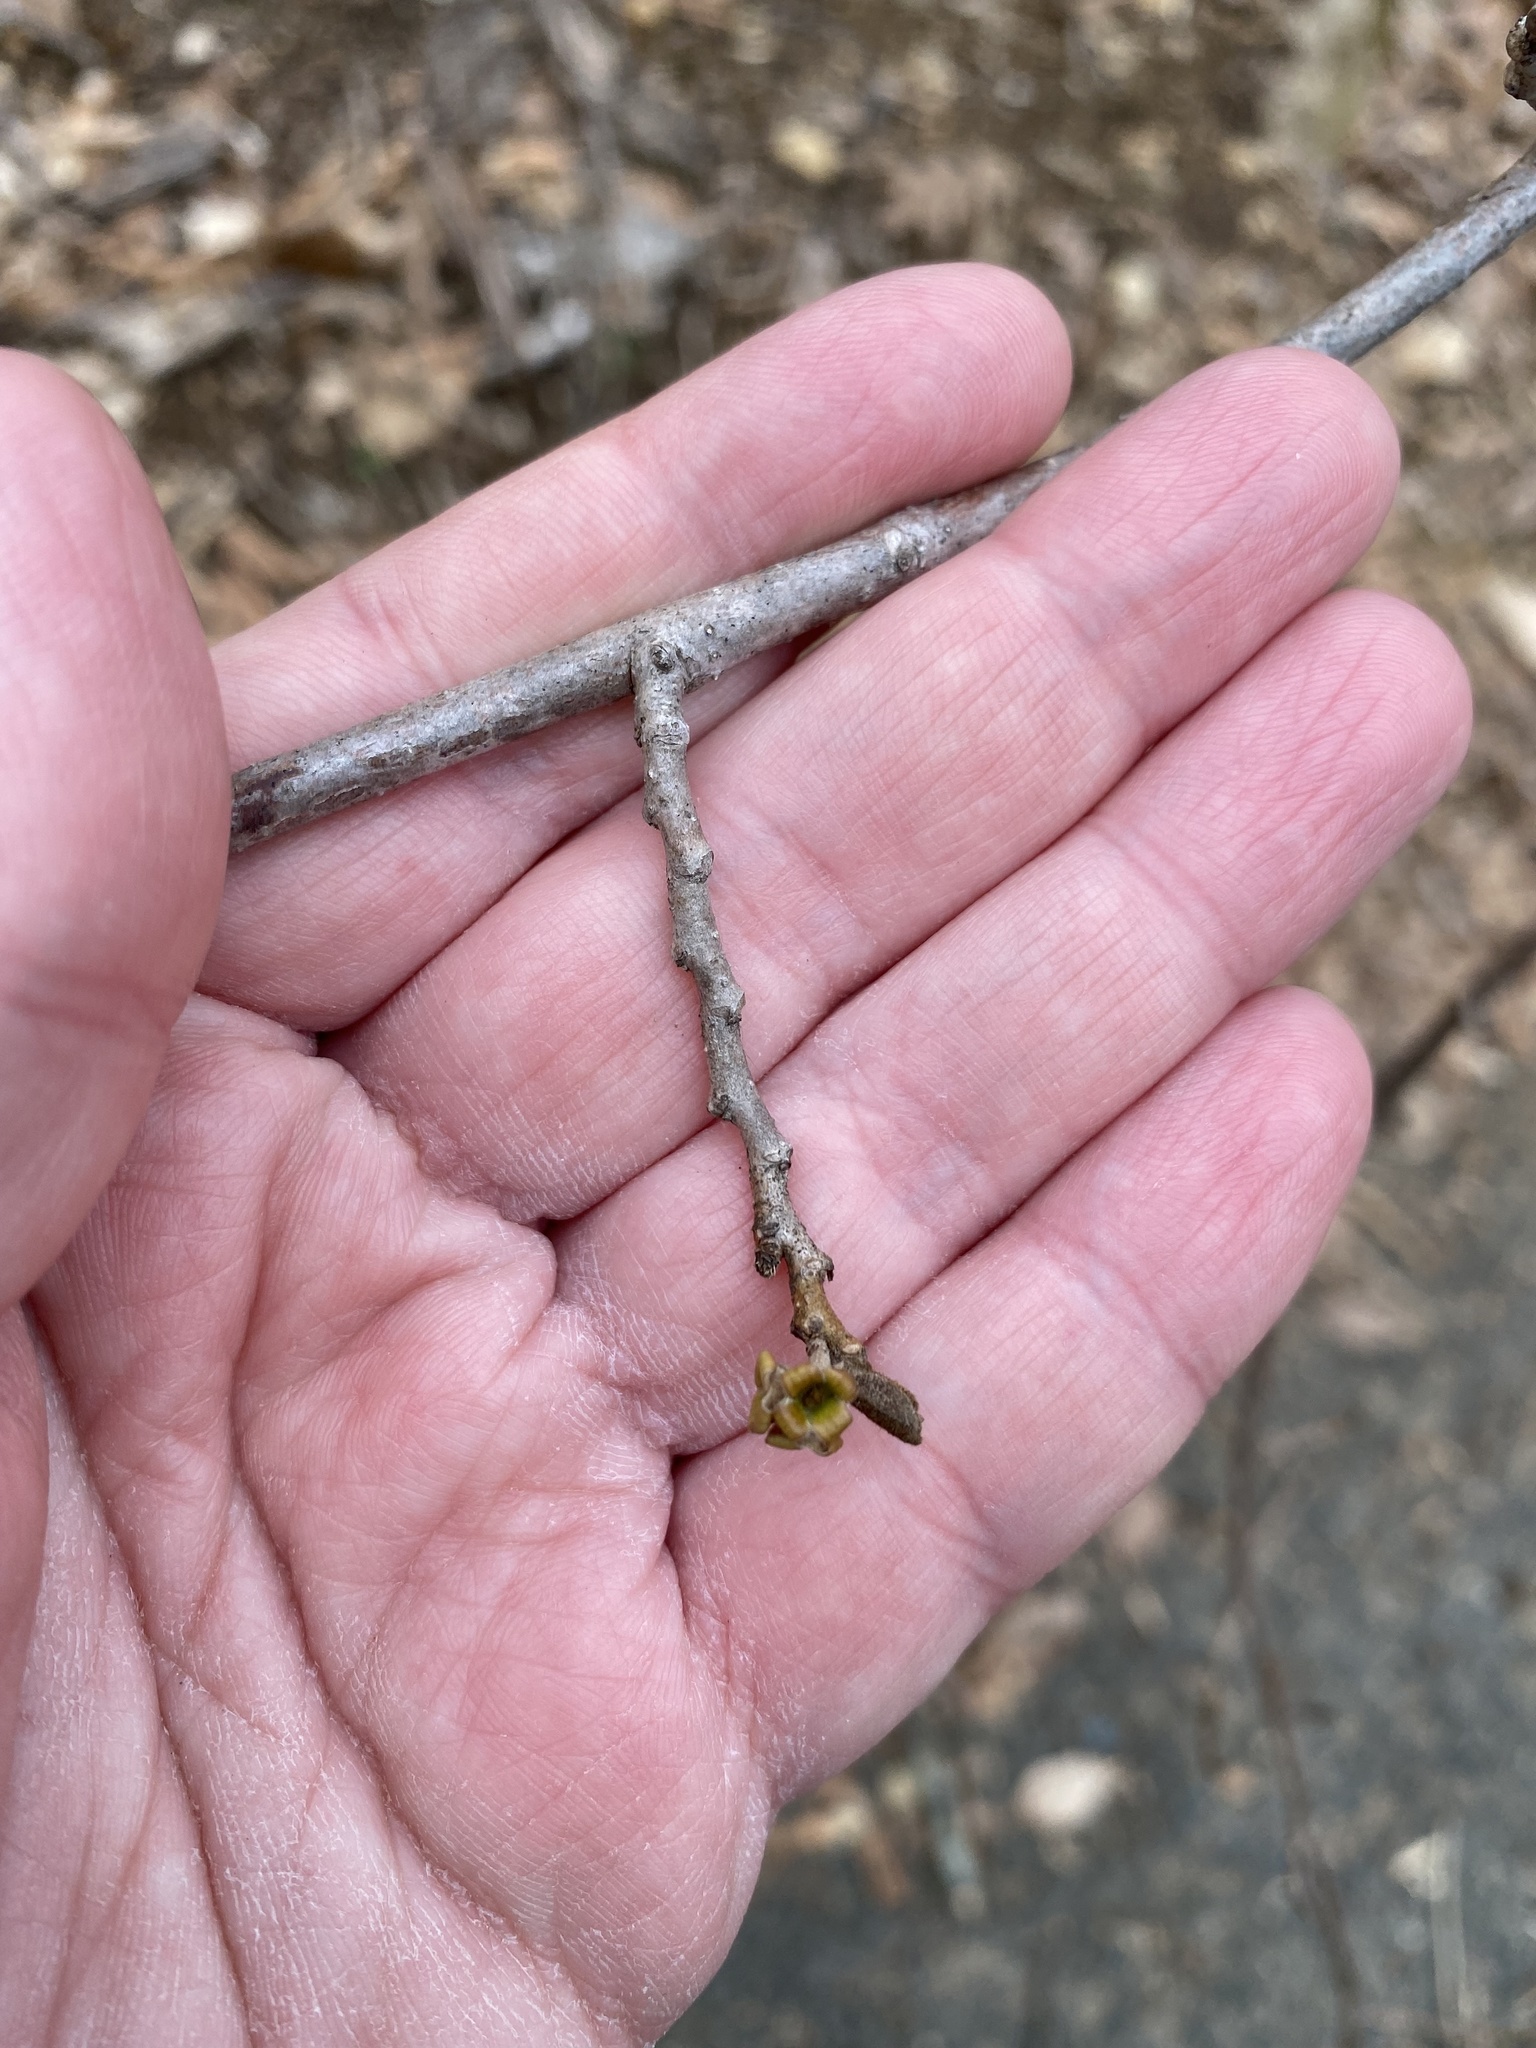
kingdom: Plantae
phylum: Tracheophyta
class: Magnoliopsida
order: Saxifragales
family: Hamamelidaceae
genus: Hamamelis
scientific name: Hamamelis virginiana
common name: Witch-hazel
